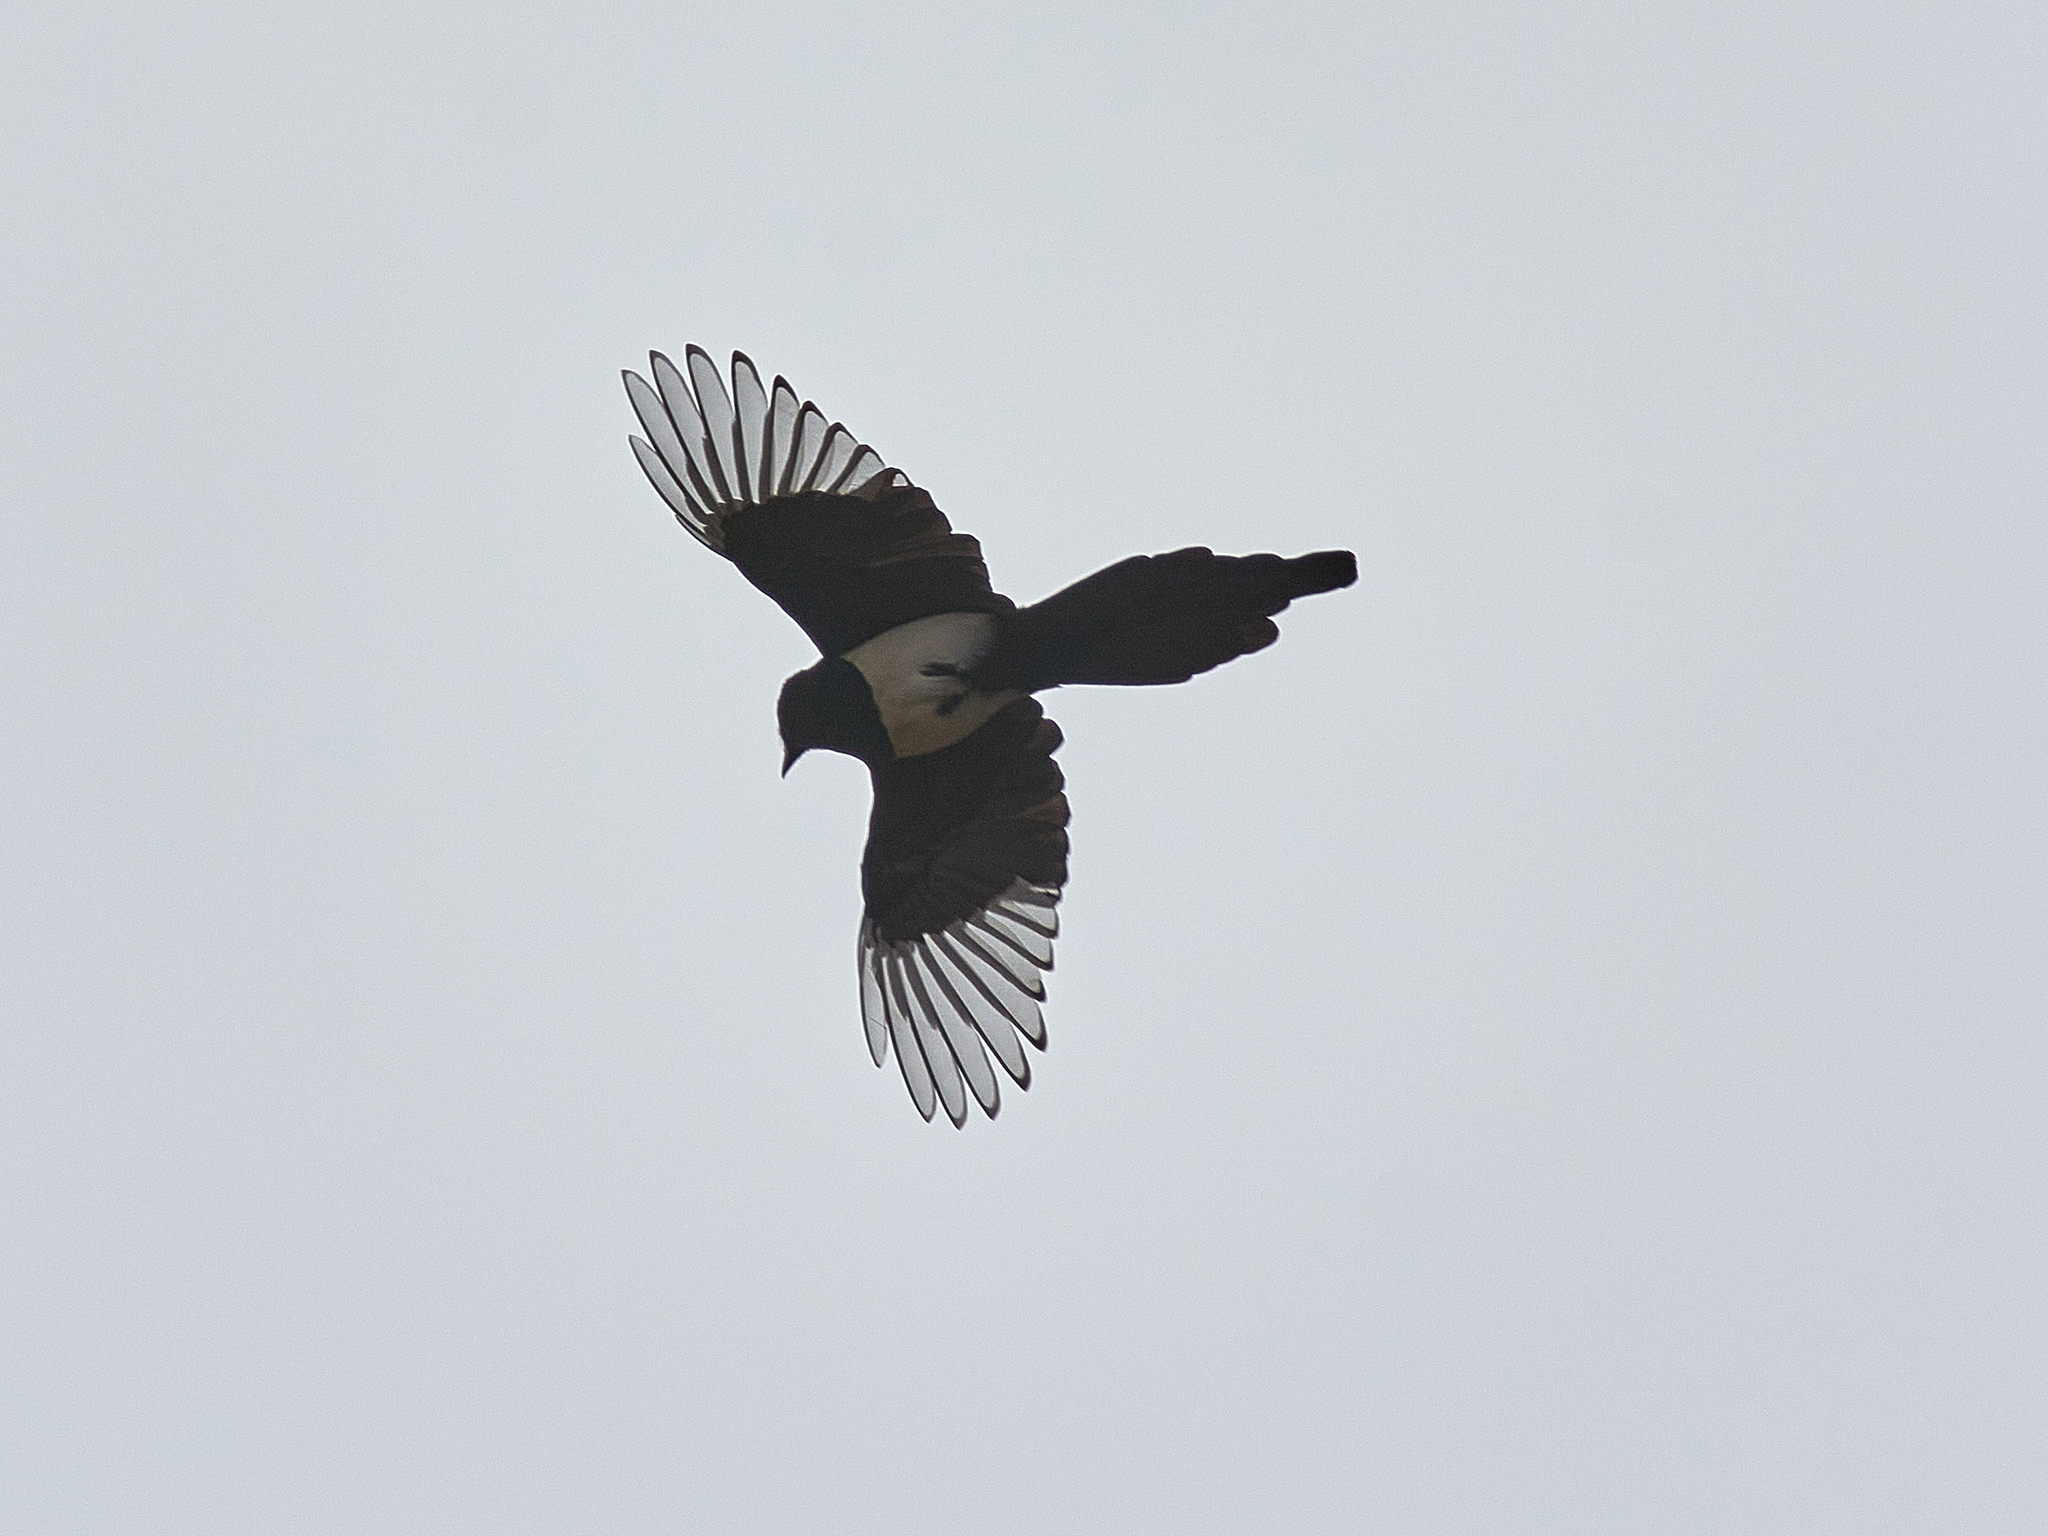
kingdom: Animalia
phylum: Chordata
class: Aves
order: Passeriformes
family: Corvidae
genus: Pica
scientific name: Pica pica
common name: Eurasian magpie
